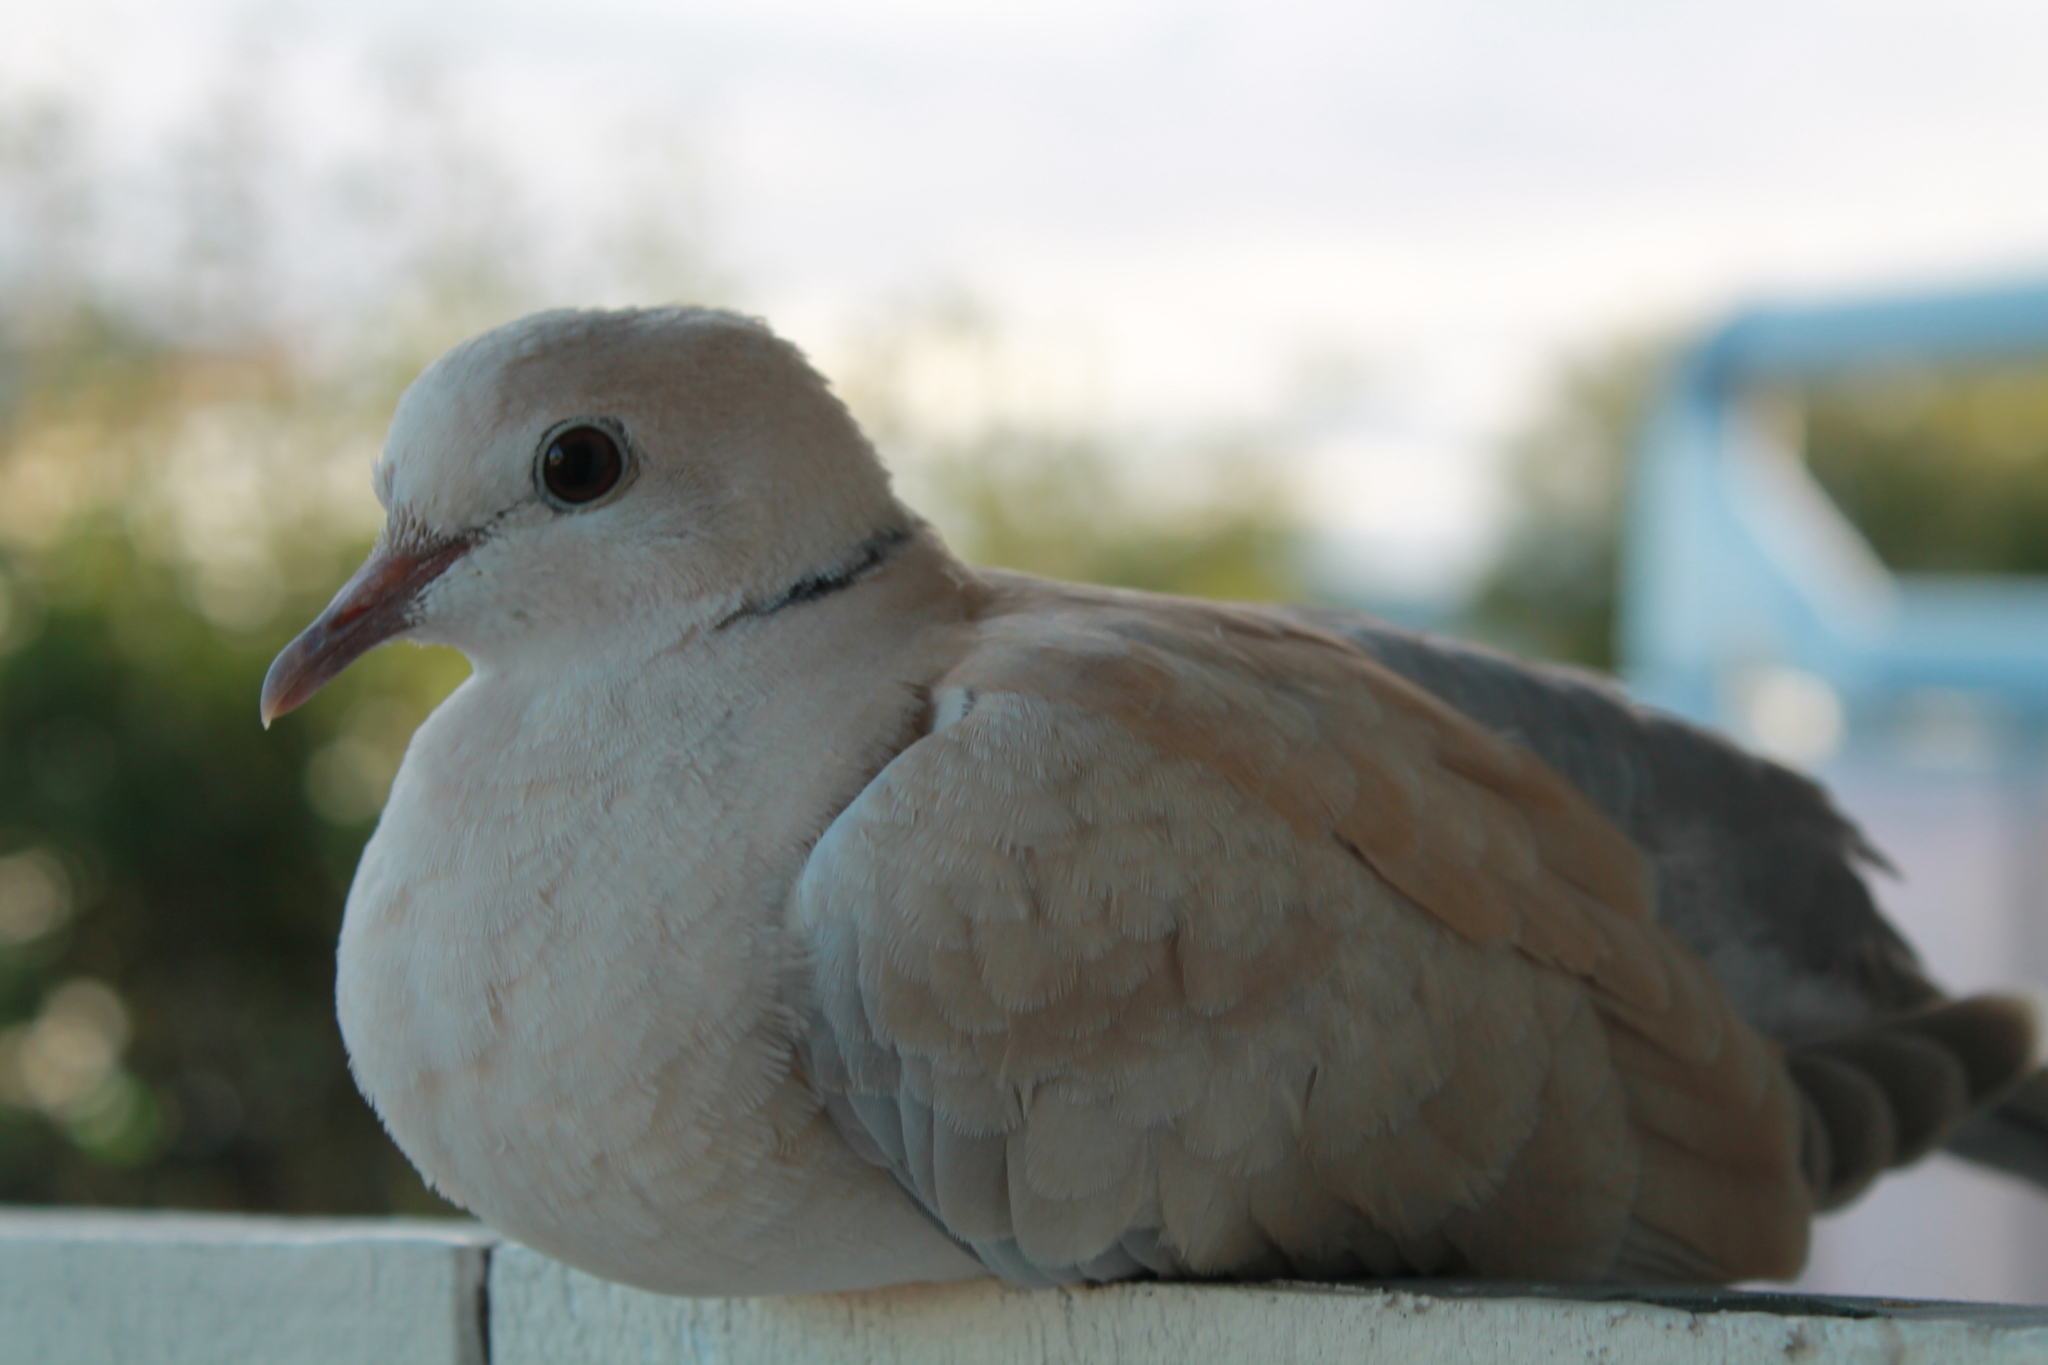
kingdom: Animalia
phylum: Chordata
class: Aves
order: Columbiformes
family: Columbidae
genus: Streptopelia
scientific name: Streptopelia roseogrisea
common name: African collared dove
